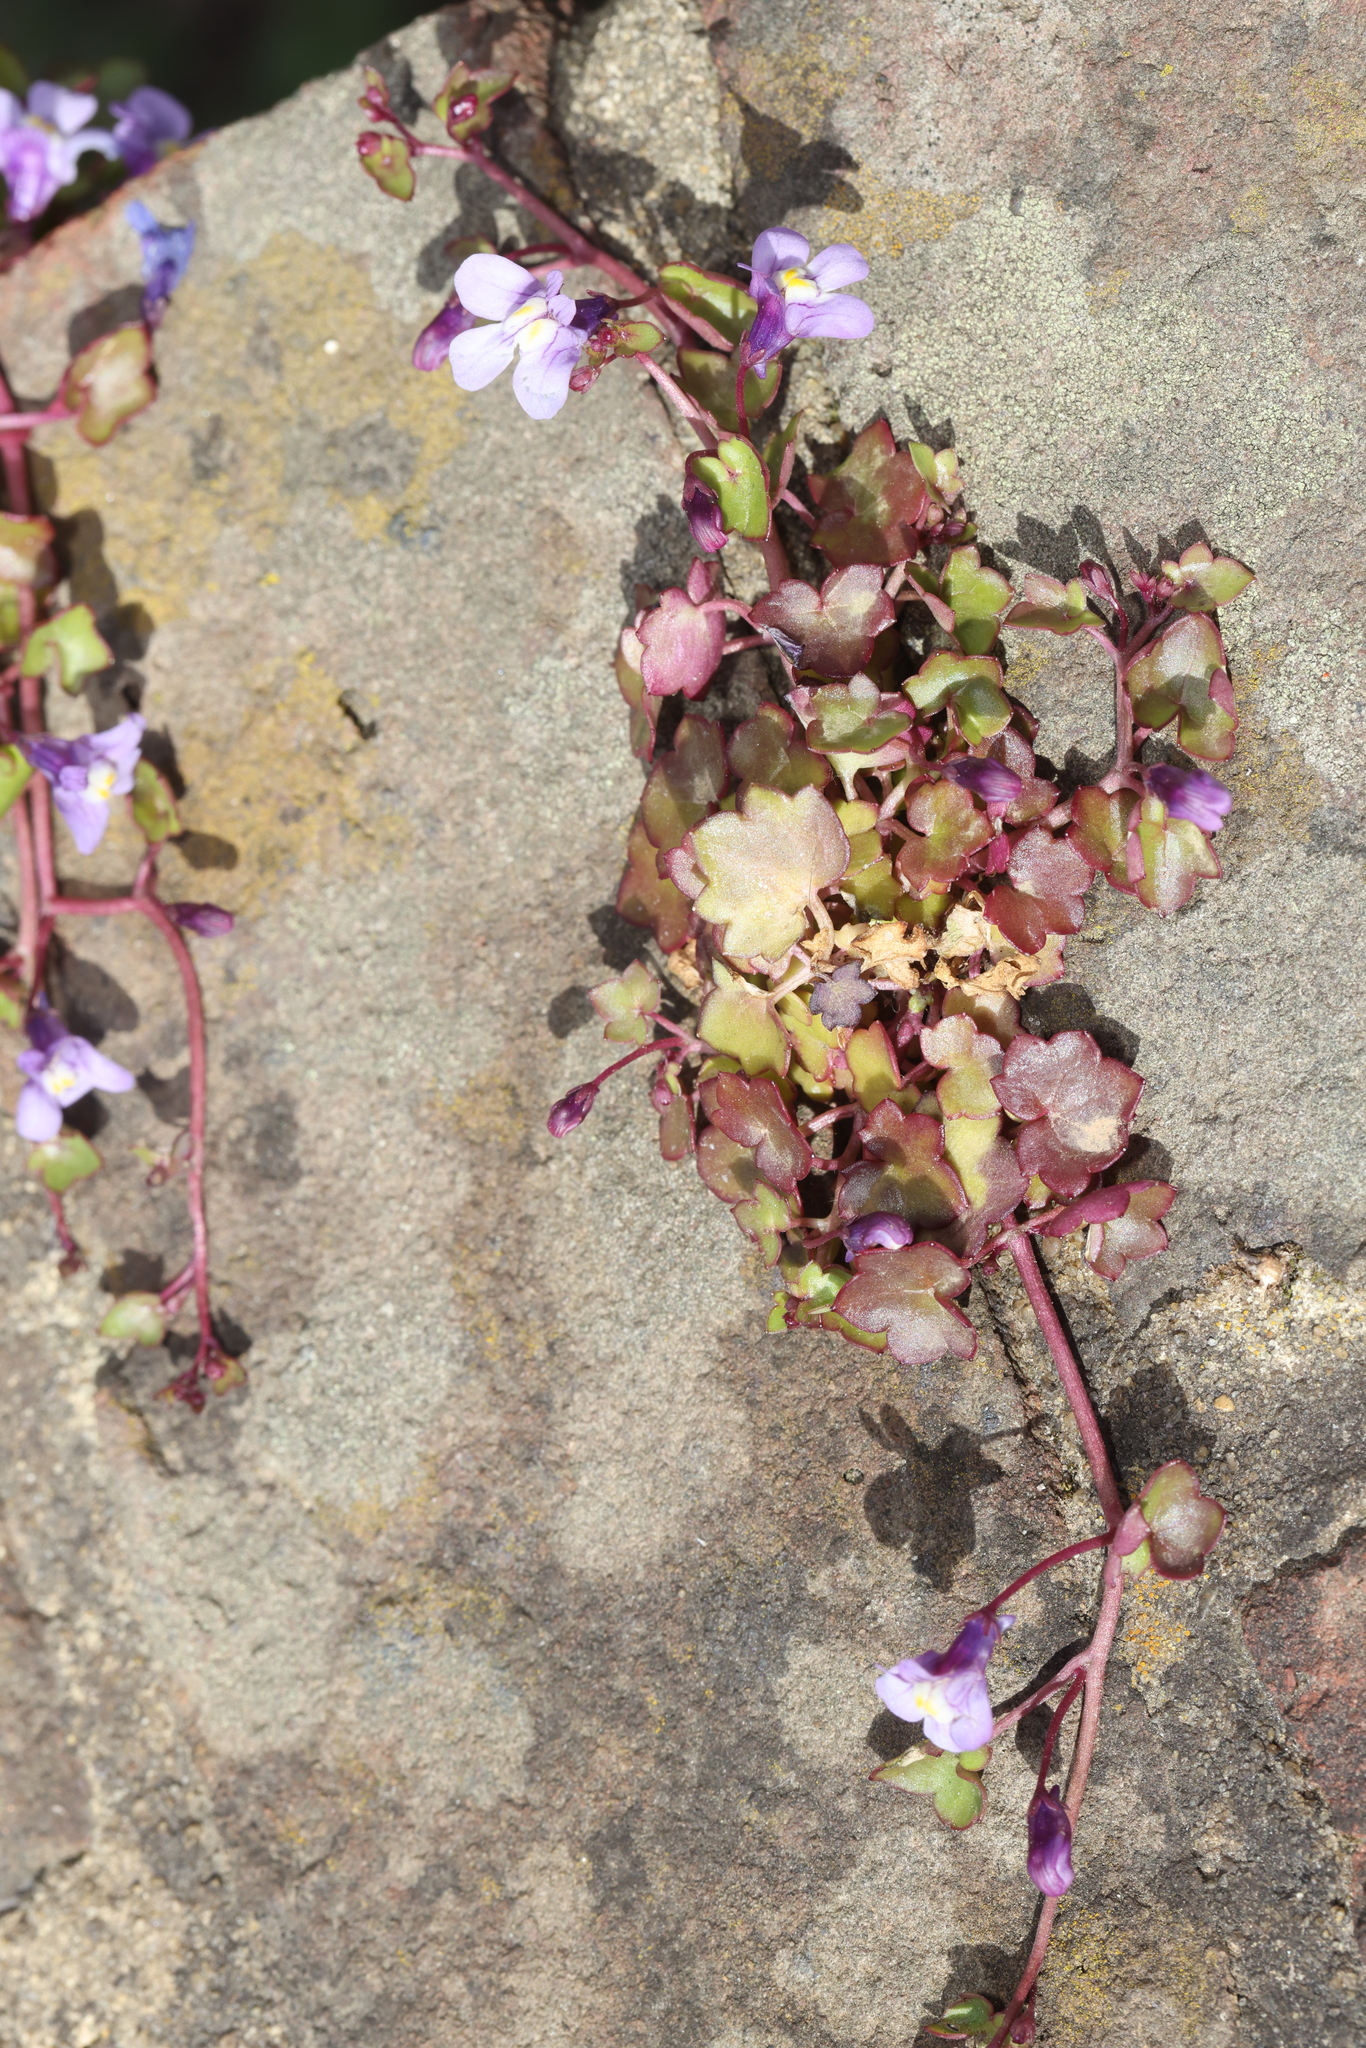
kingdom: Plantae
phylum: Tracheophyta
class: Magnoliopsida
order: Lamiales
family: Plantaginaceae
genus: Cymbalaria
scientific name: Cymbalaria muralis
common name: Ivy-leaved toadflax
